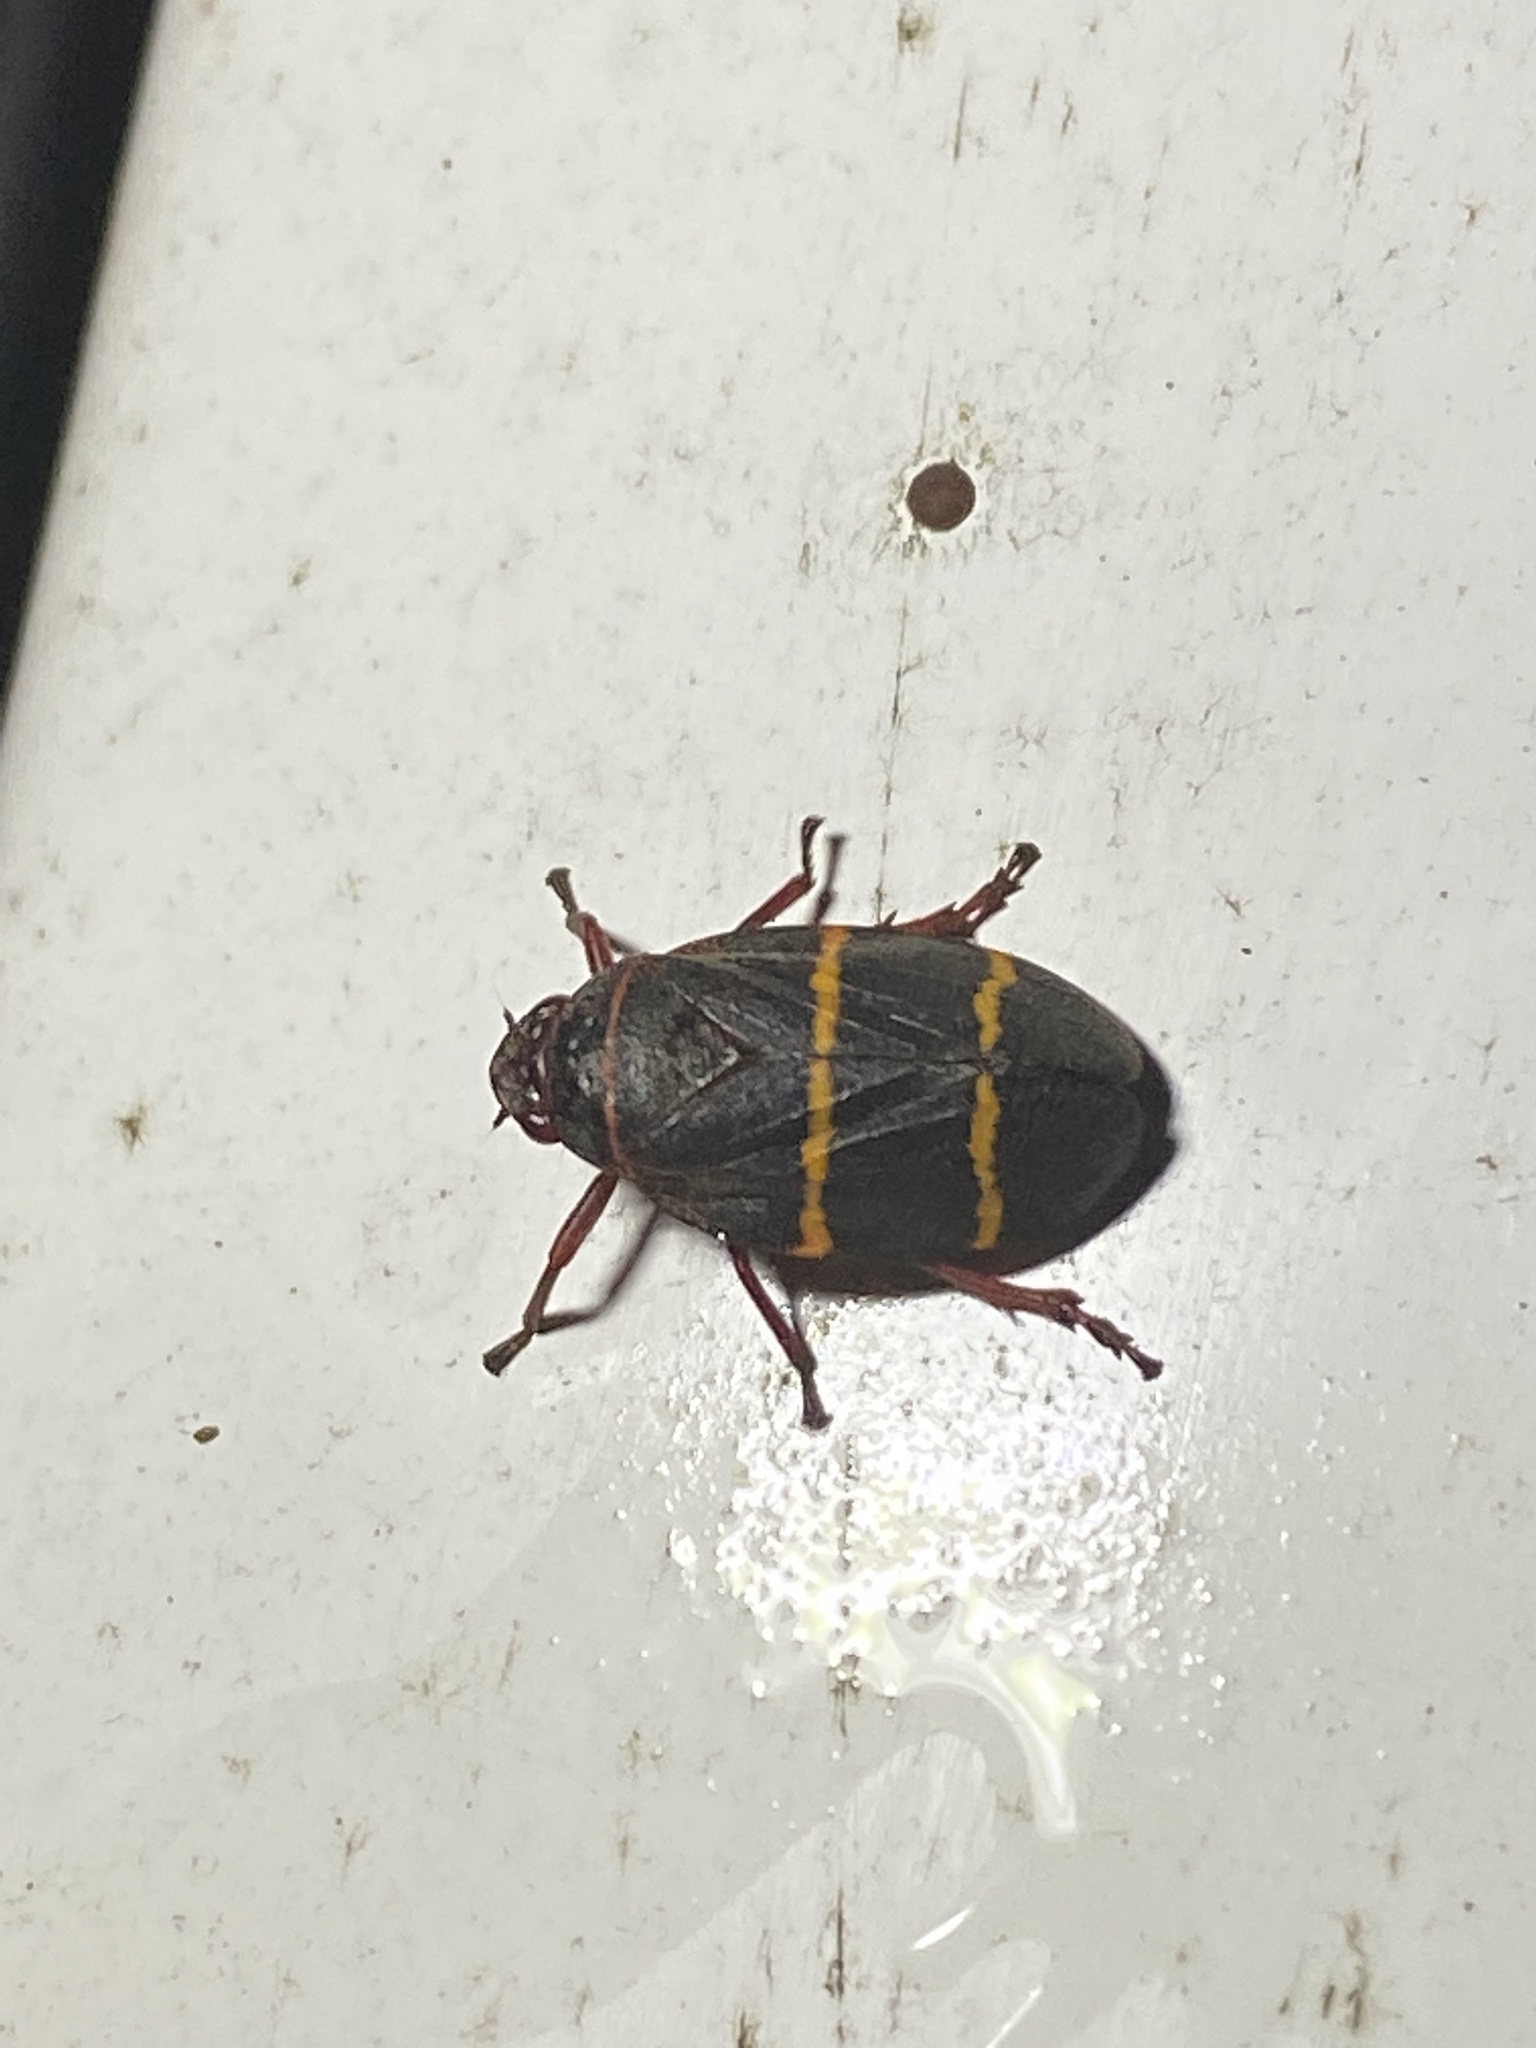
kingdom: Animalia
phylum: Arthropoda
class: Insecta
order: Hemiptera
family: Cercopidae
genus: Prosapia
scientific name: Prosapia bicincta
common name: Twolined spittlebug
